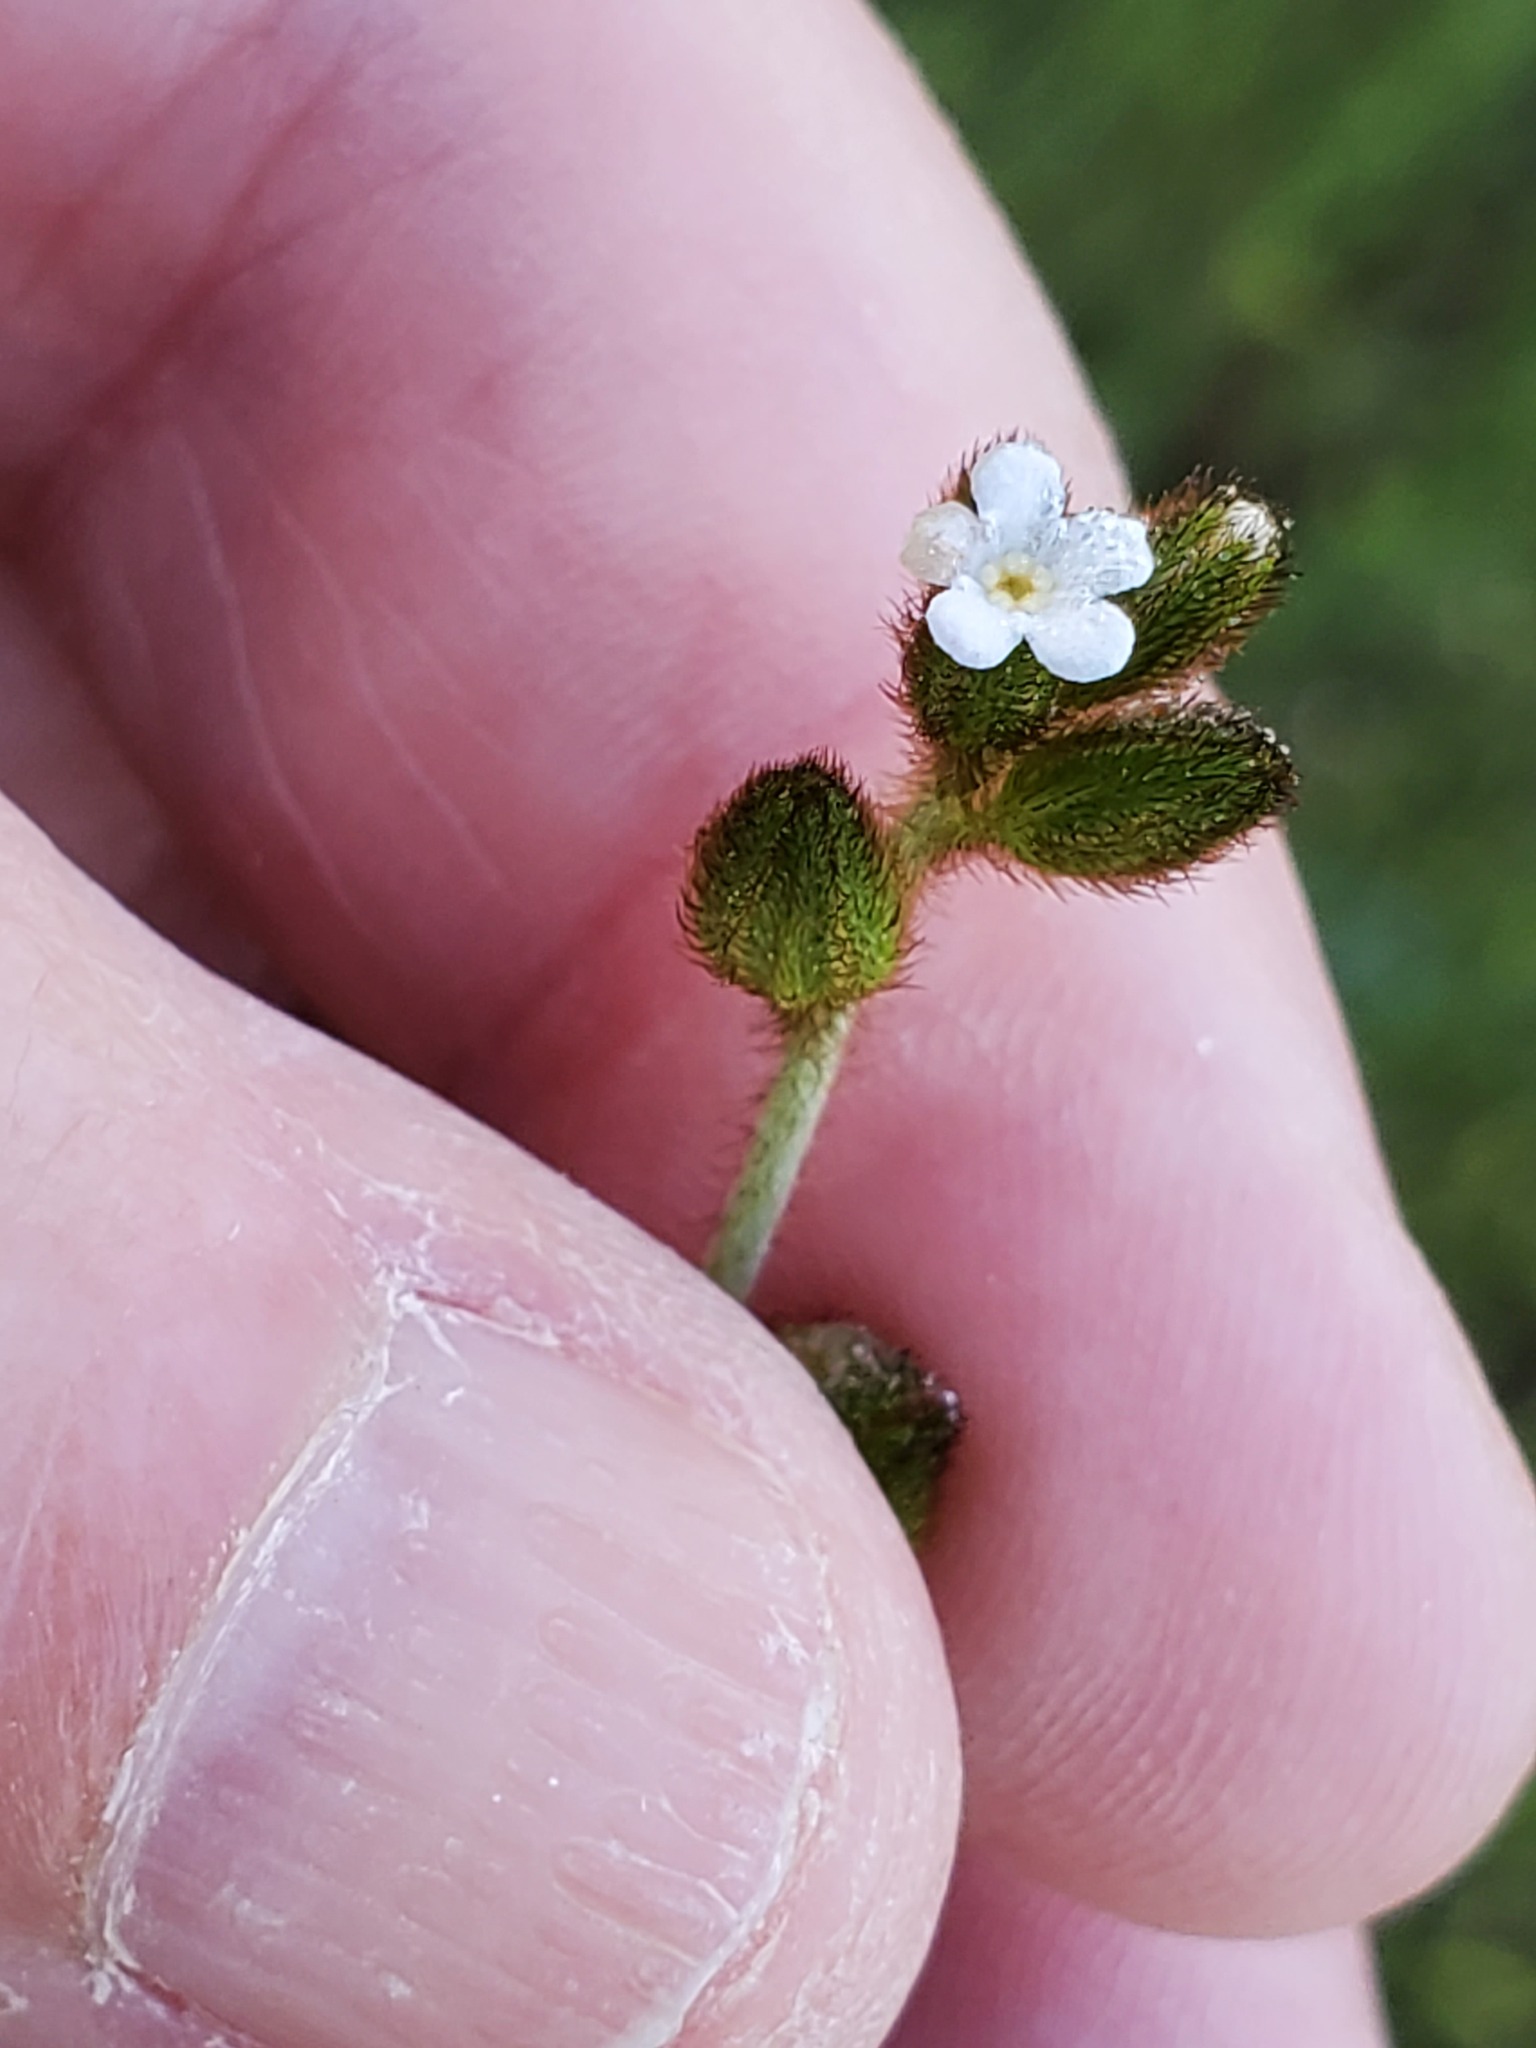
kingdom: Plantae
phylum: Tracheophyta
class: Magnoliopsida
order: Boraginales
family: Boraginaceae
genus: Plagiobothrys
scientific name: Plagiobothrys nothofulvus
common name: Popcorn-flower
